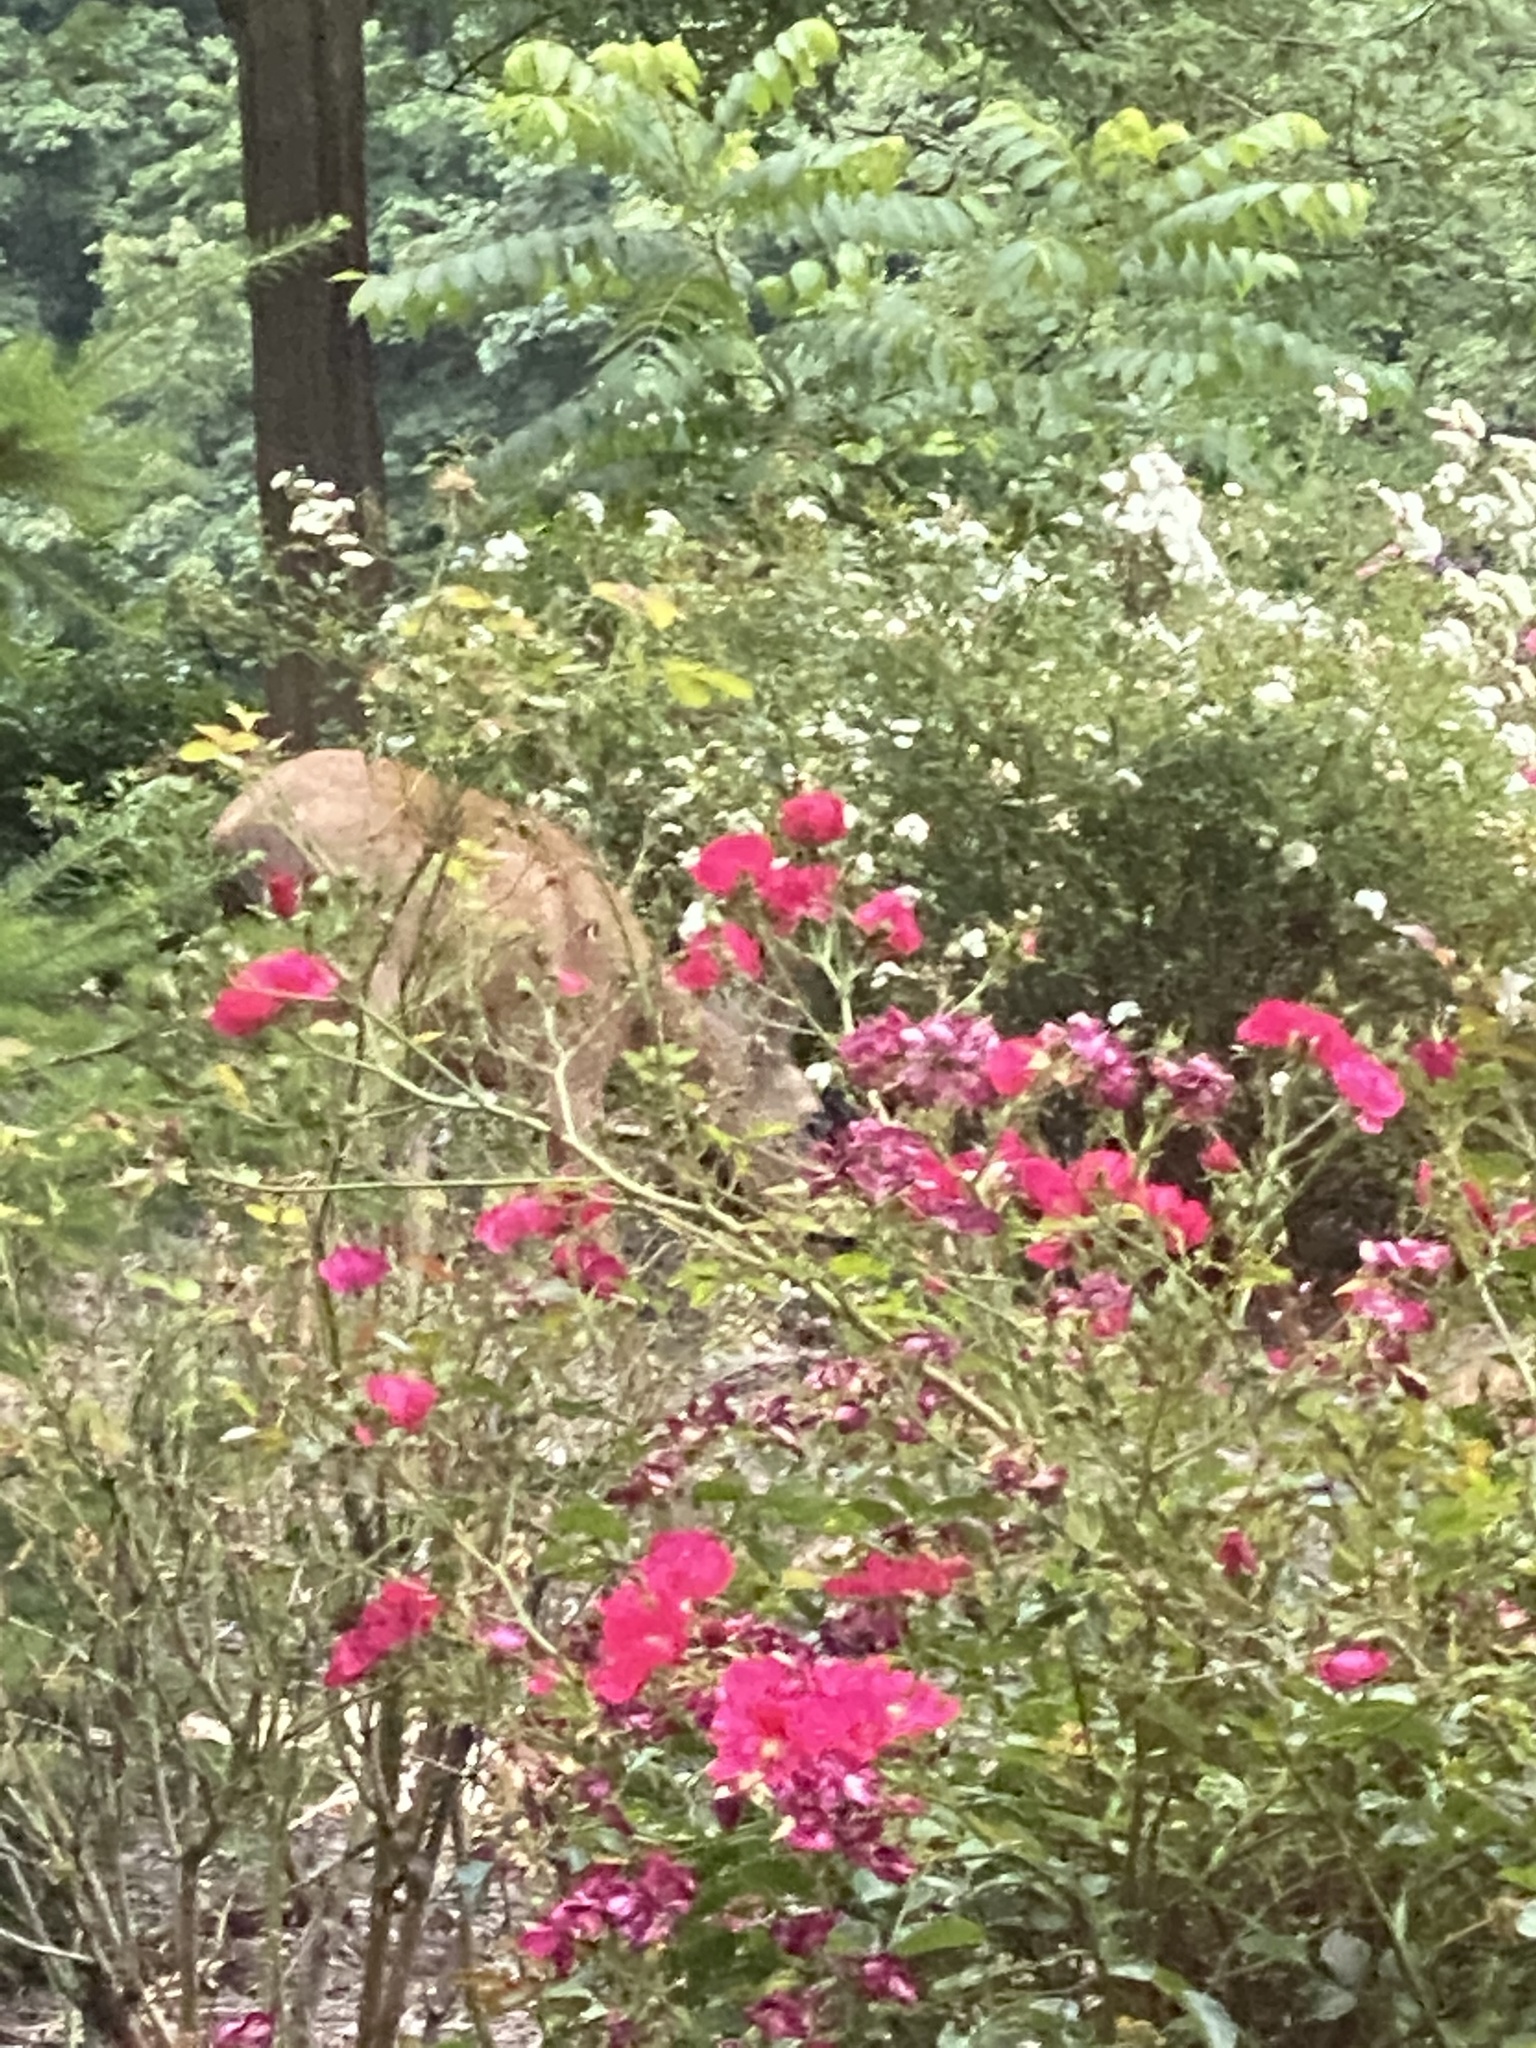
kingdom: Animalia
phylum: Chordata
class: Mammalia
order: Artiodactyla
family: Cervidae
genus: Odocoileus
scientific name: Odocoileus hemionus
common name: Mule deer
